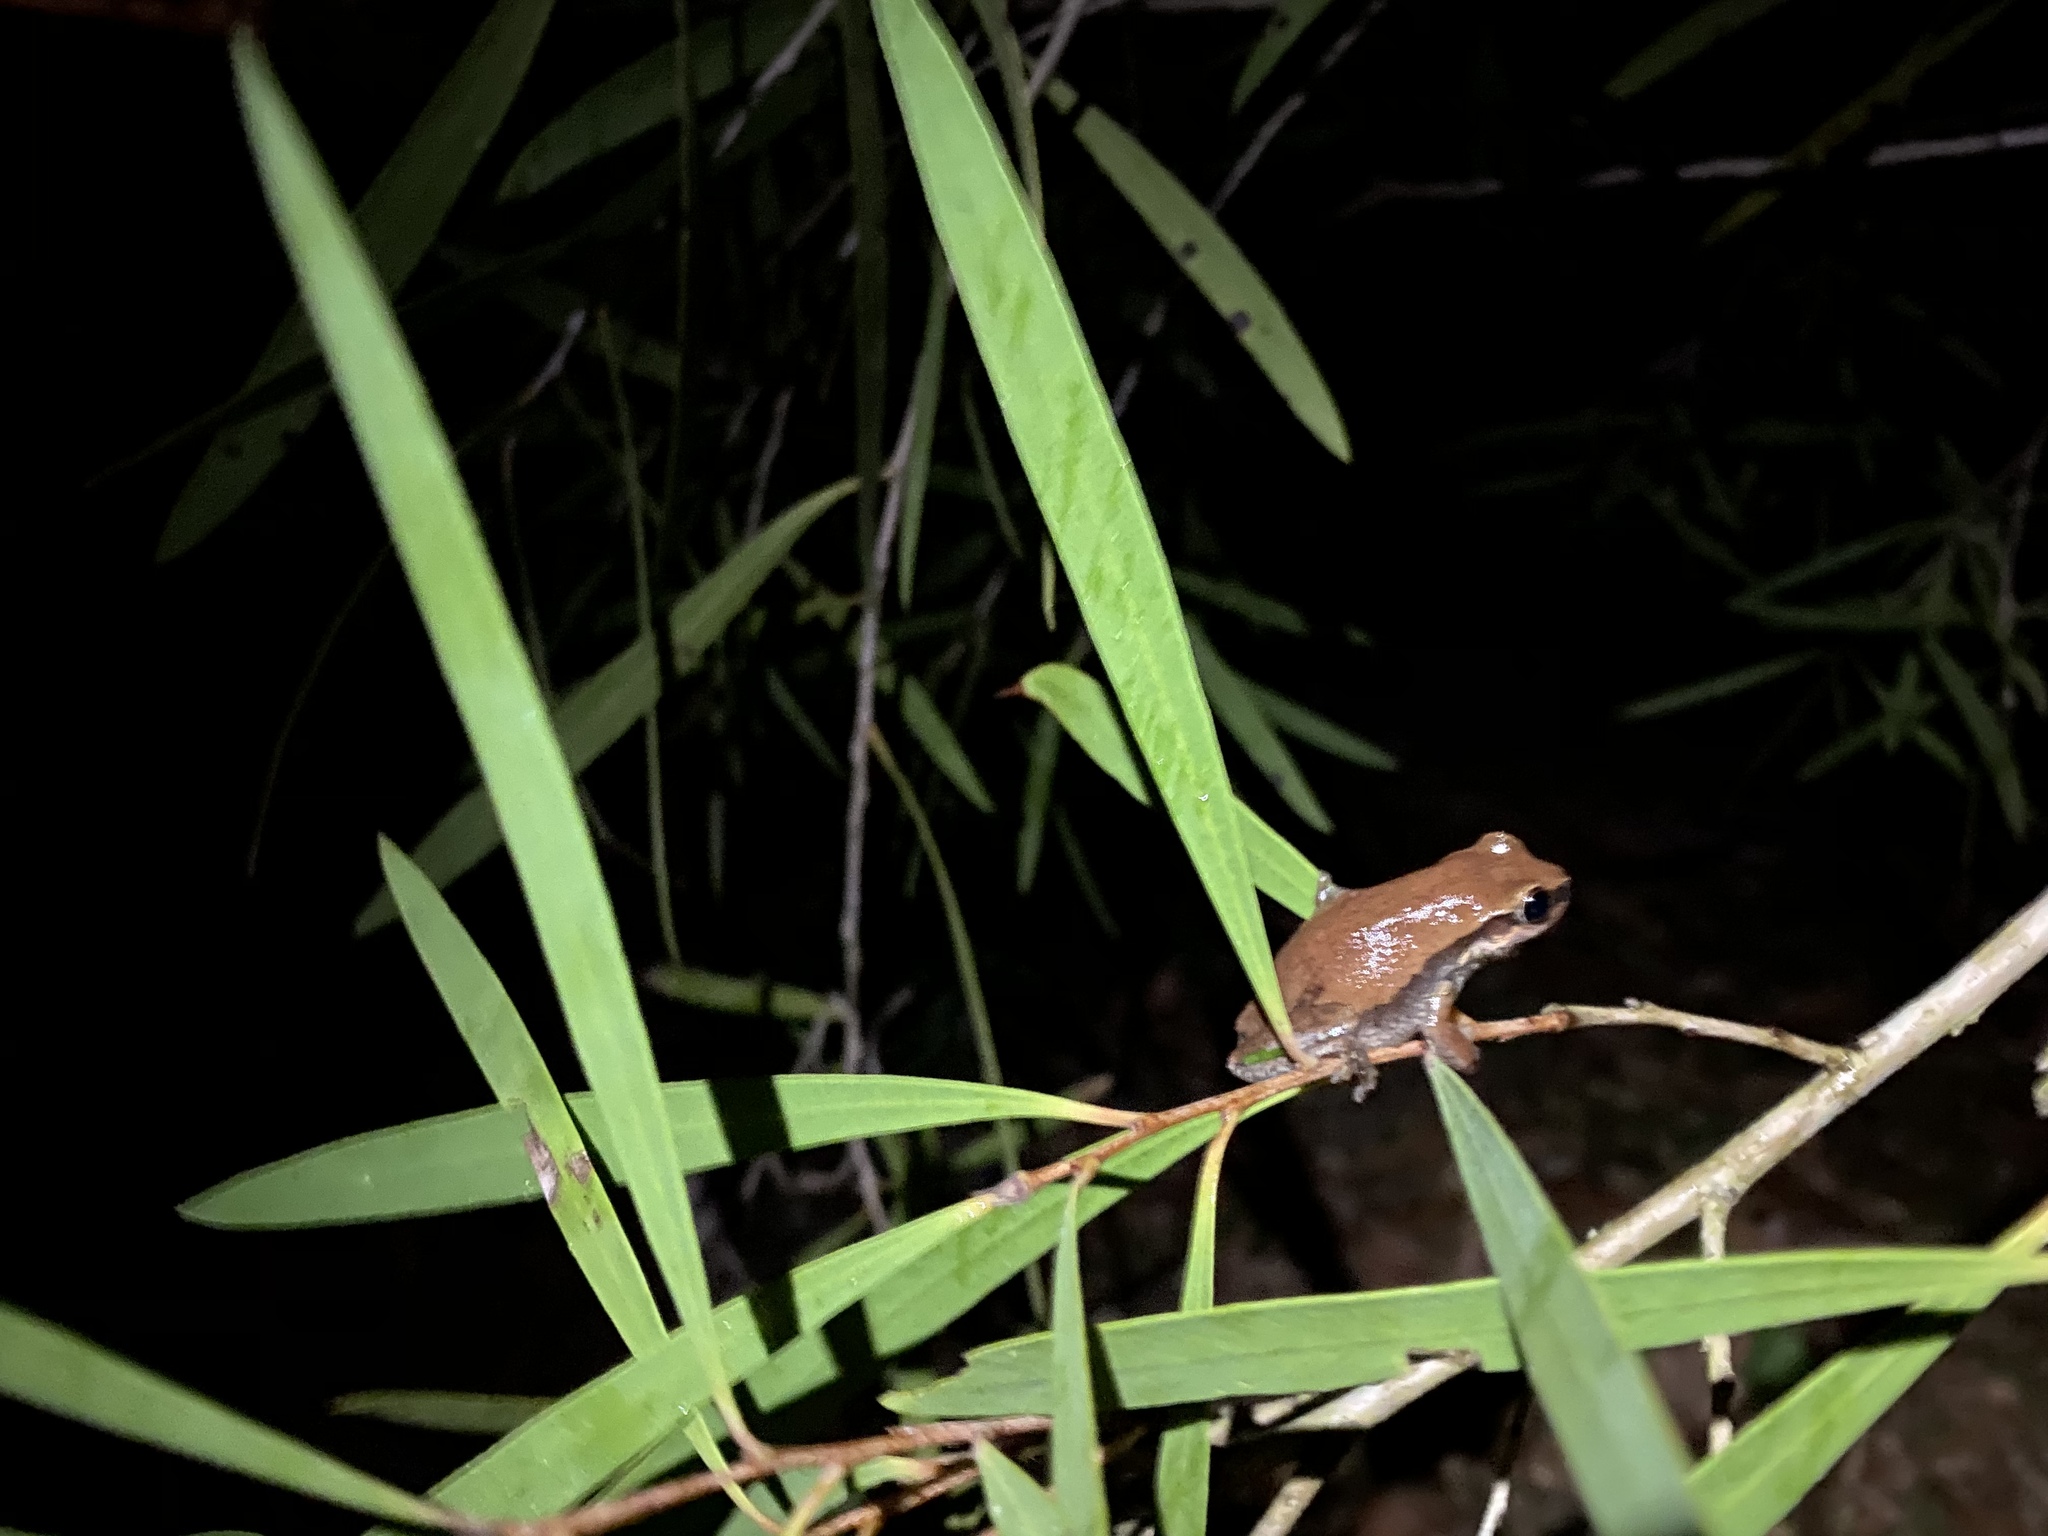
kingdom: Animalia
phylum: Chordata
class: Amphibia
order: Anura
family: Pelodryadidae
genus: Litoria
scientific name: Litoria rubella
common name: Desert tree frog
